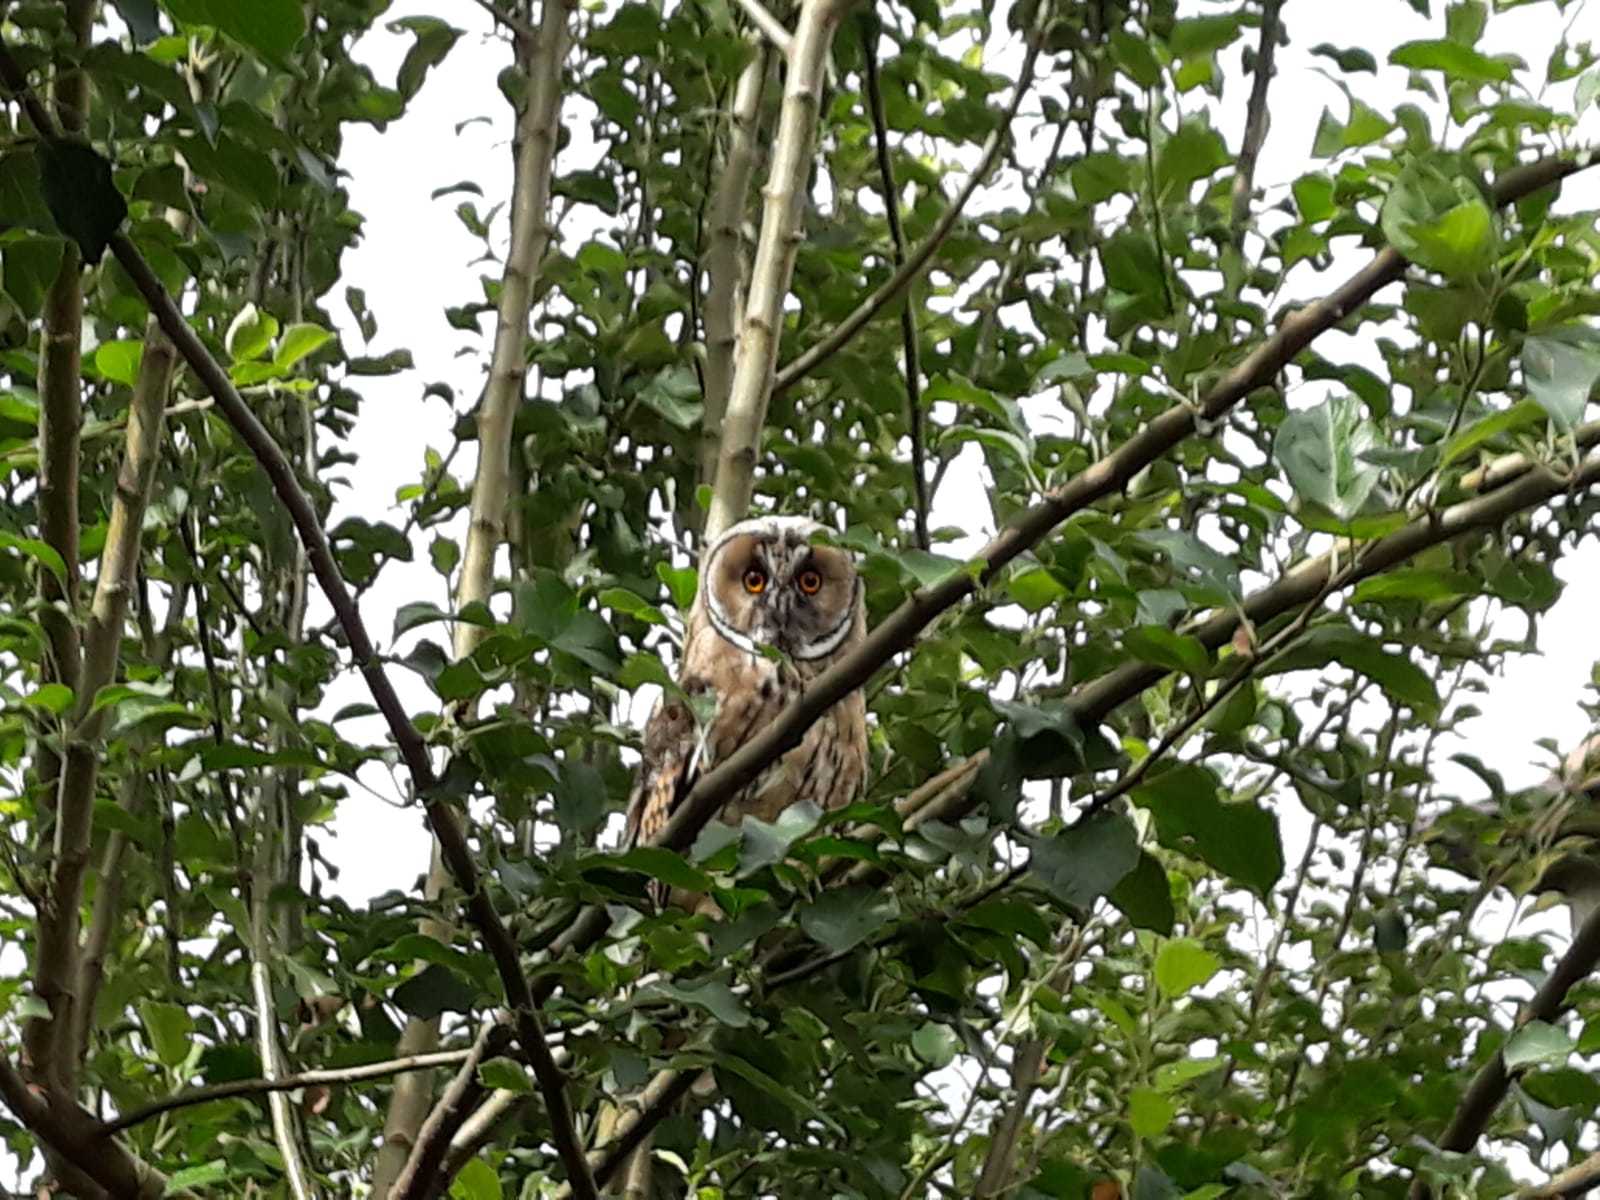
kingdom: Animalia
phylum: Chordata
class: Aves
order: Strigiformes
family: Strigidae
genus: Asio
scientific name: Asio otus
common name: Long-eared owl
